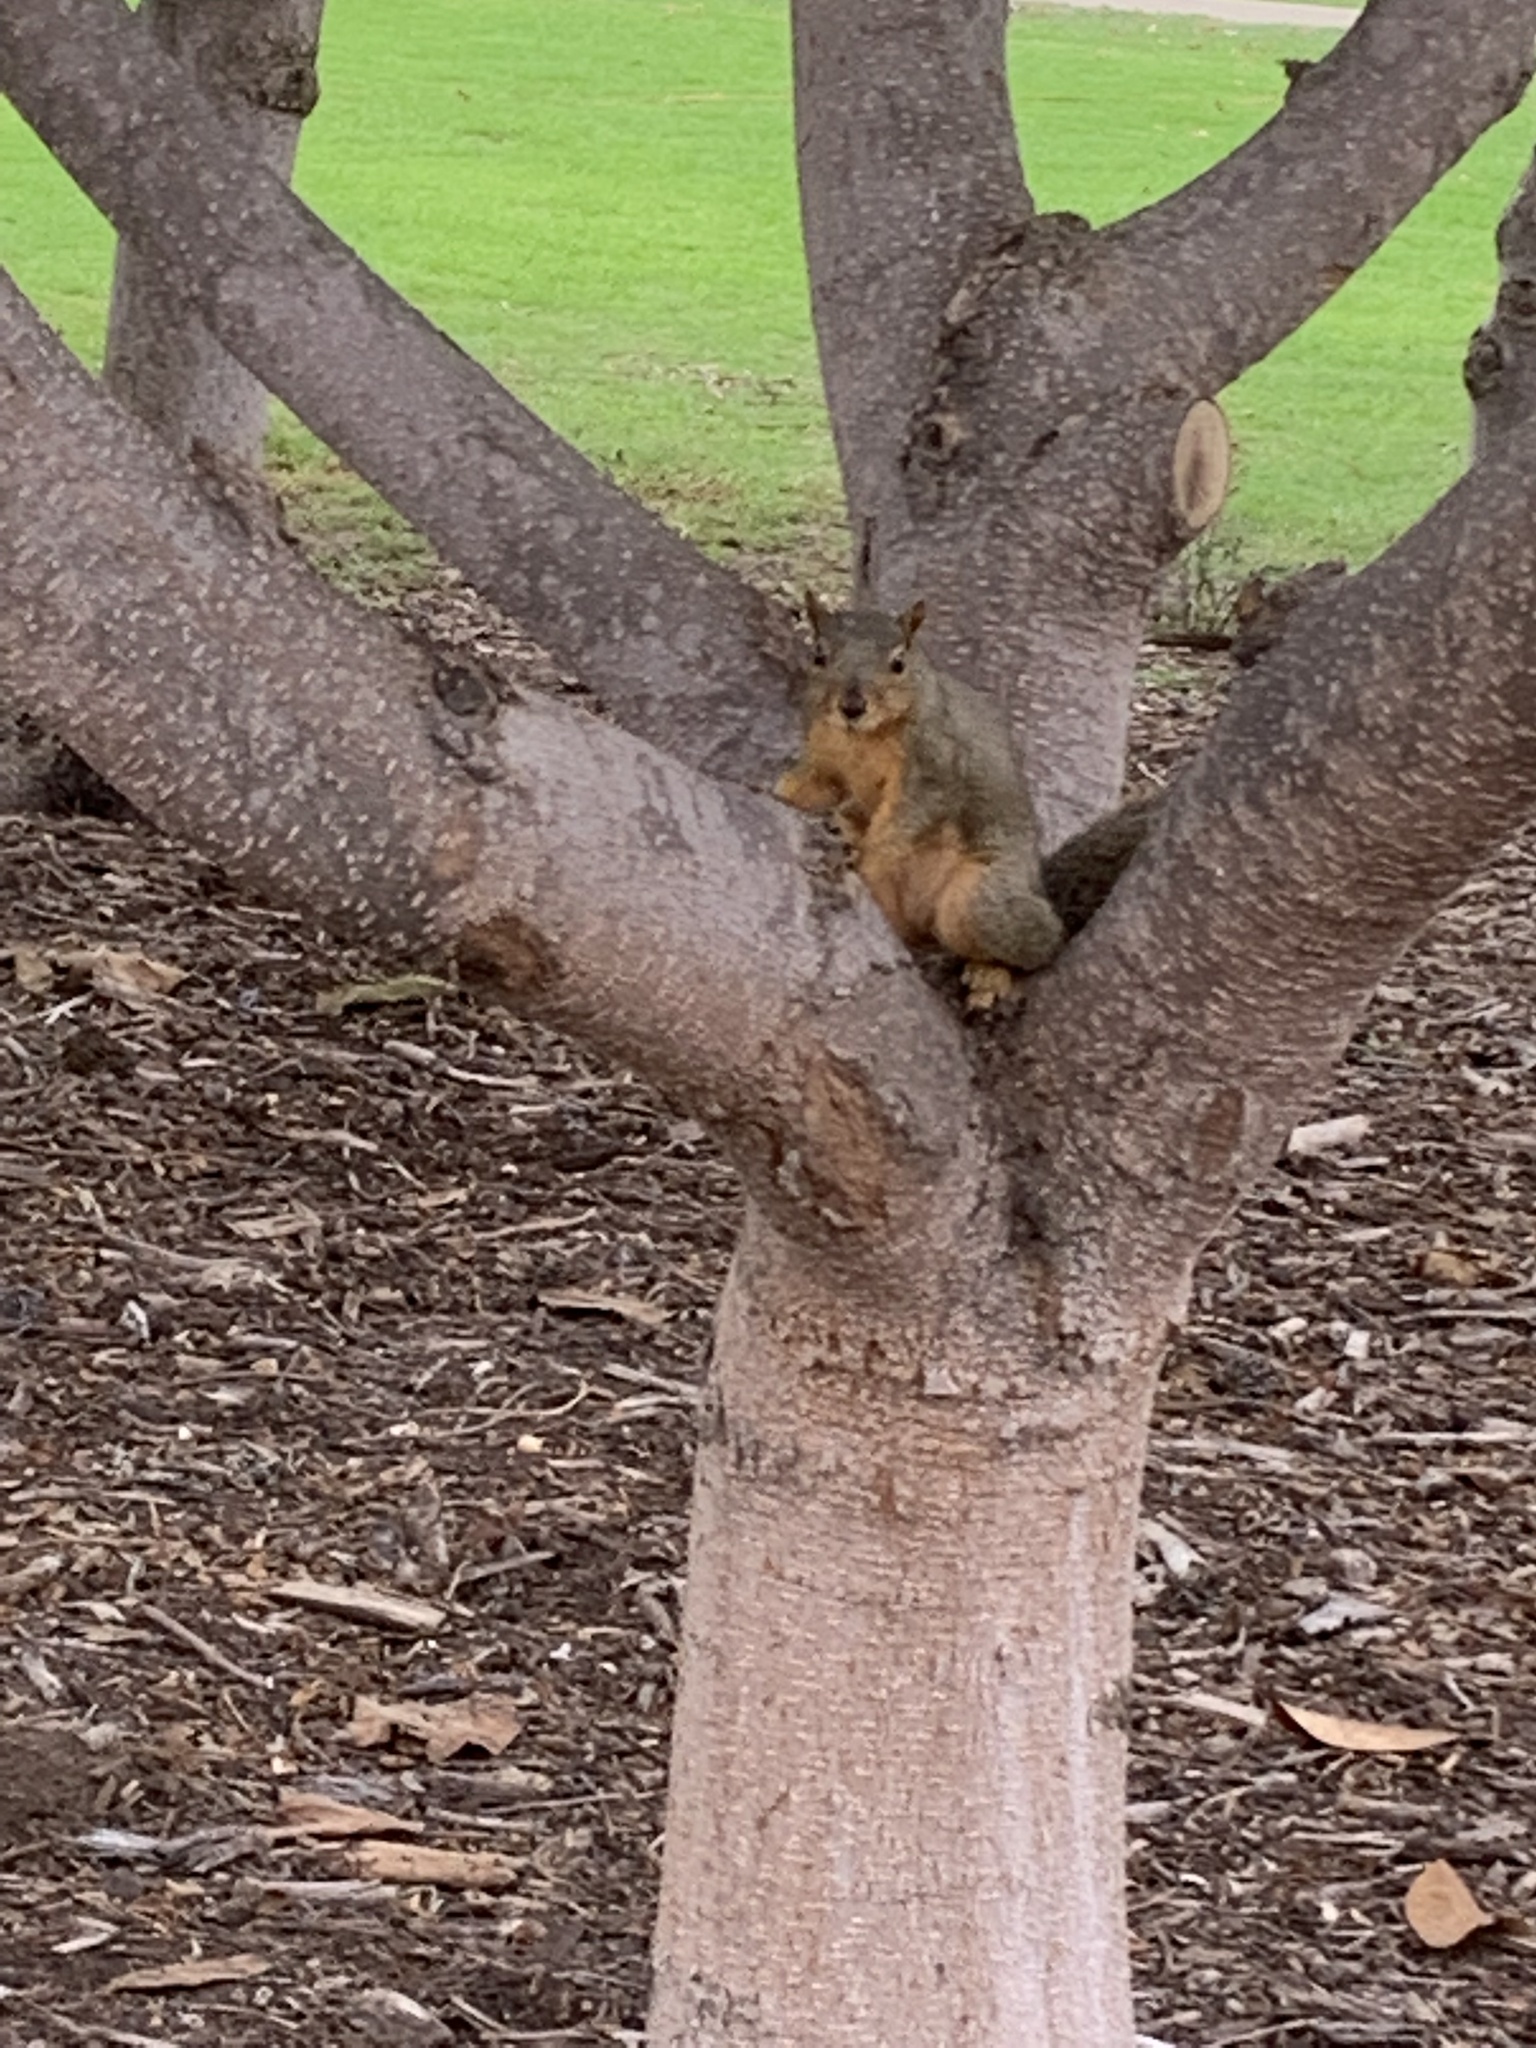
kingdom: Animalia
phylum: Chordata
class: Mammalia
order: Rodentia
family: Sciuridae
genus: Sciurus
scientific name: Sciurus niger
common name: Fox squirrel
